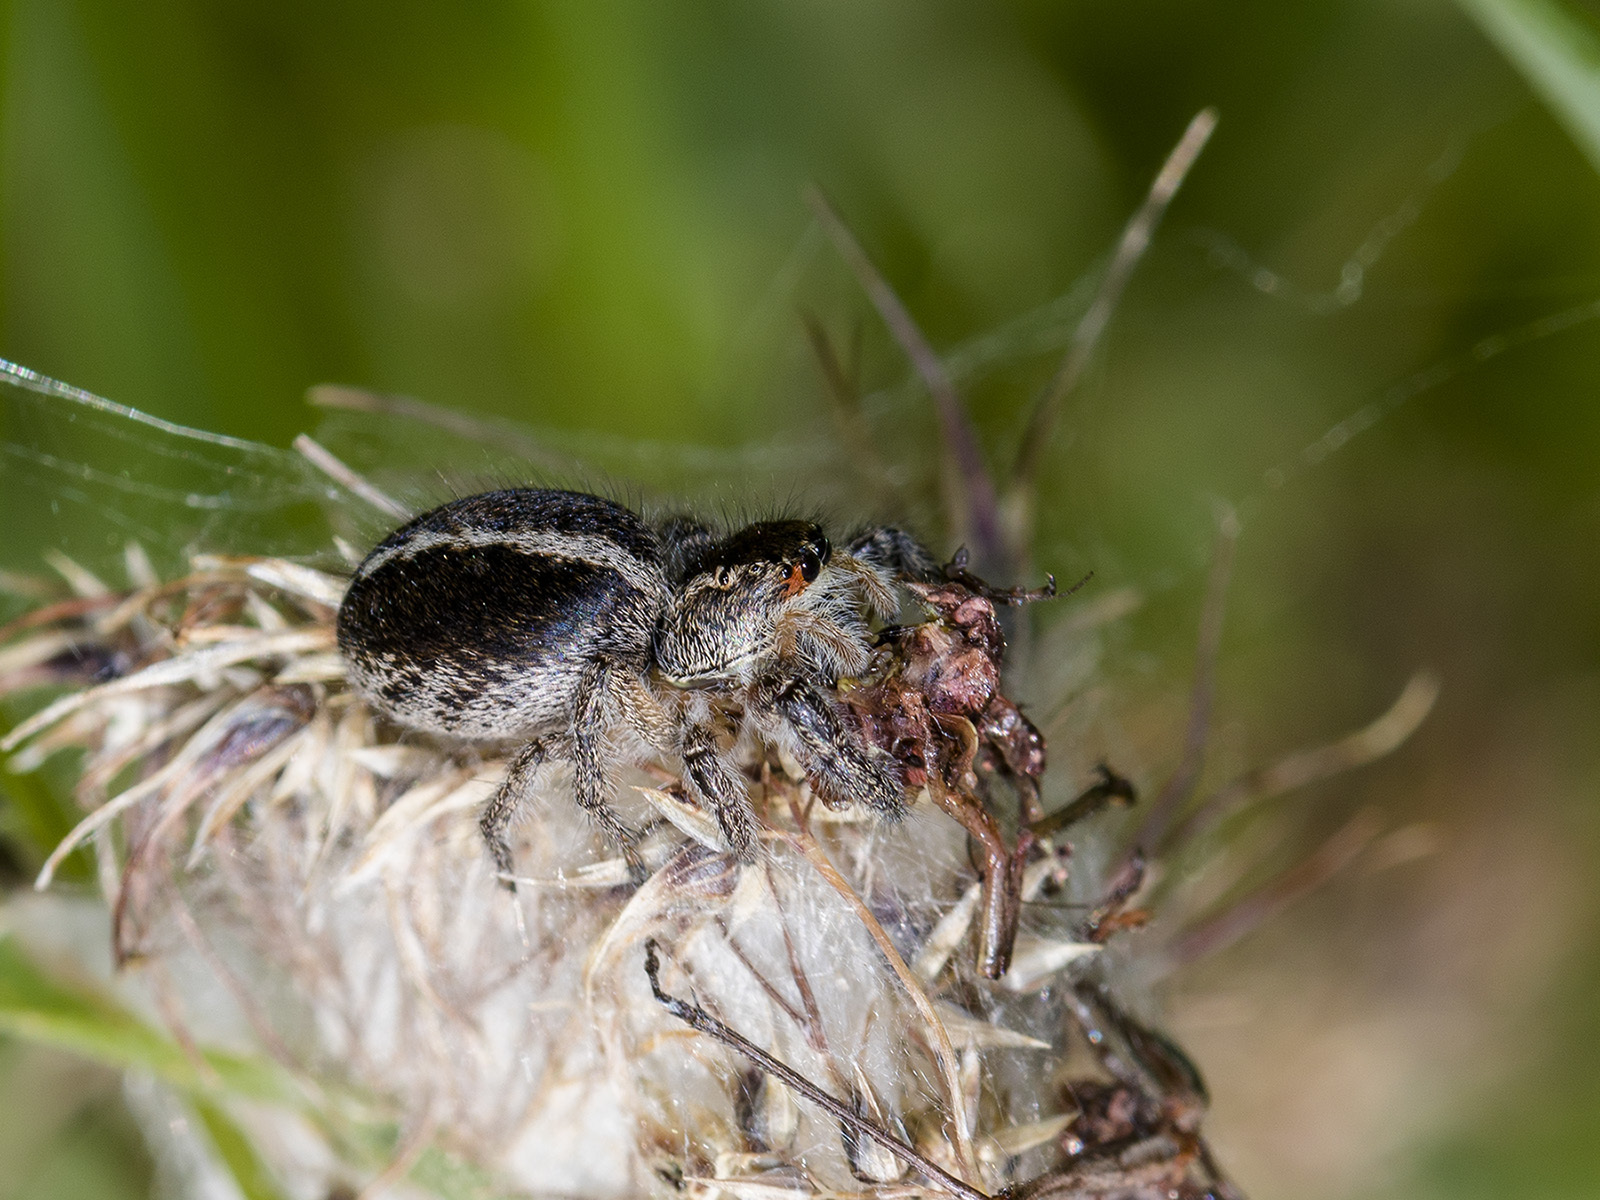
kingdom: Animalia
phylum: Arthropoda
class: Arachnida
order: Araneae
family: Salticidae
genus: Pellenes
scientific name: Pellenes seriatus
